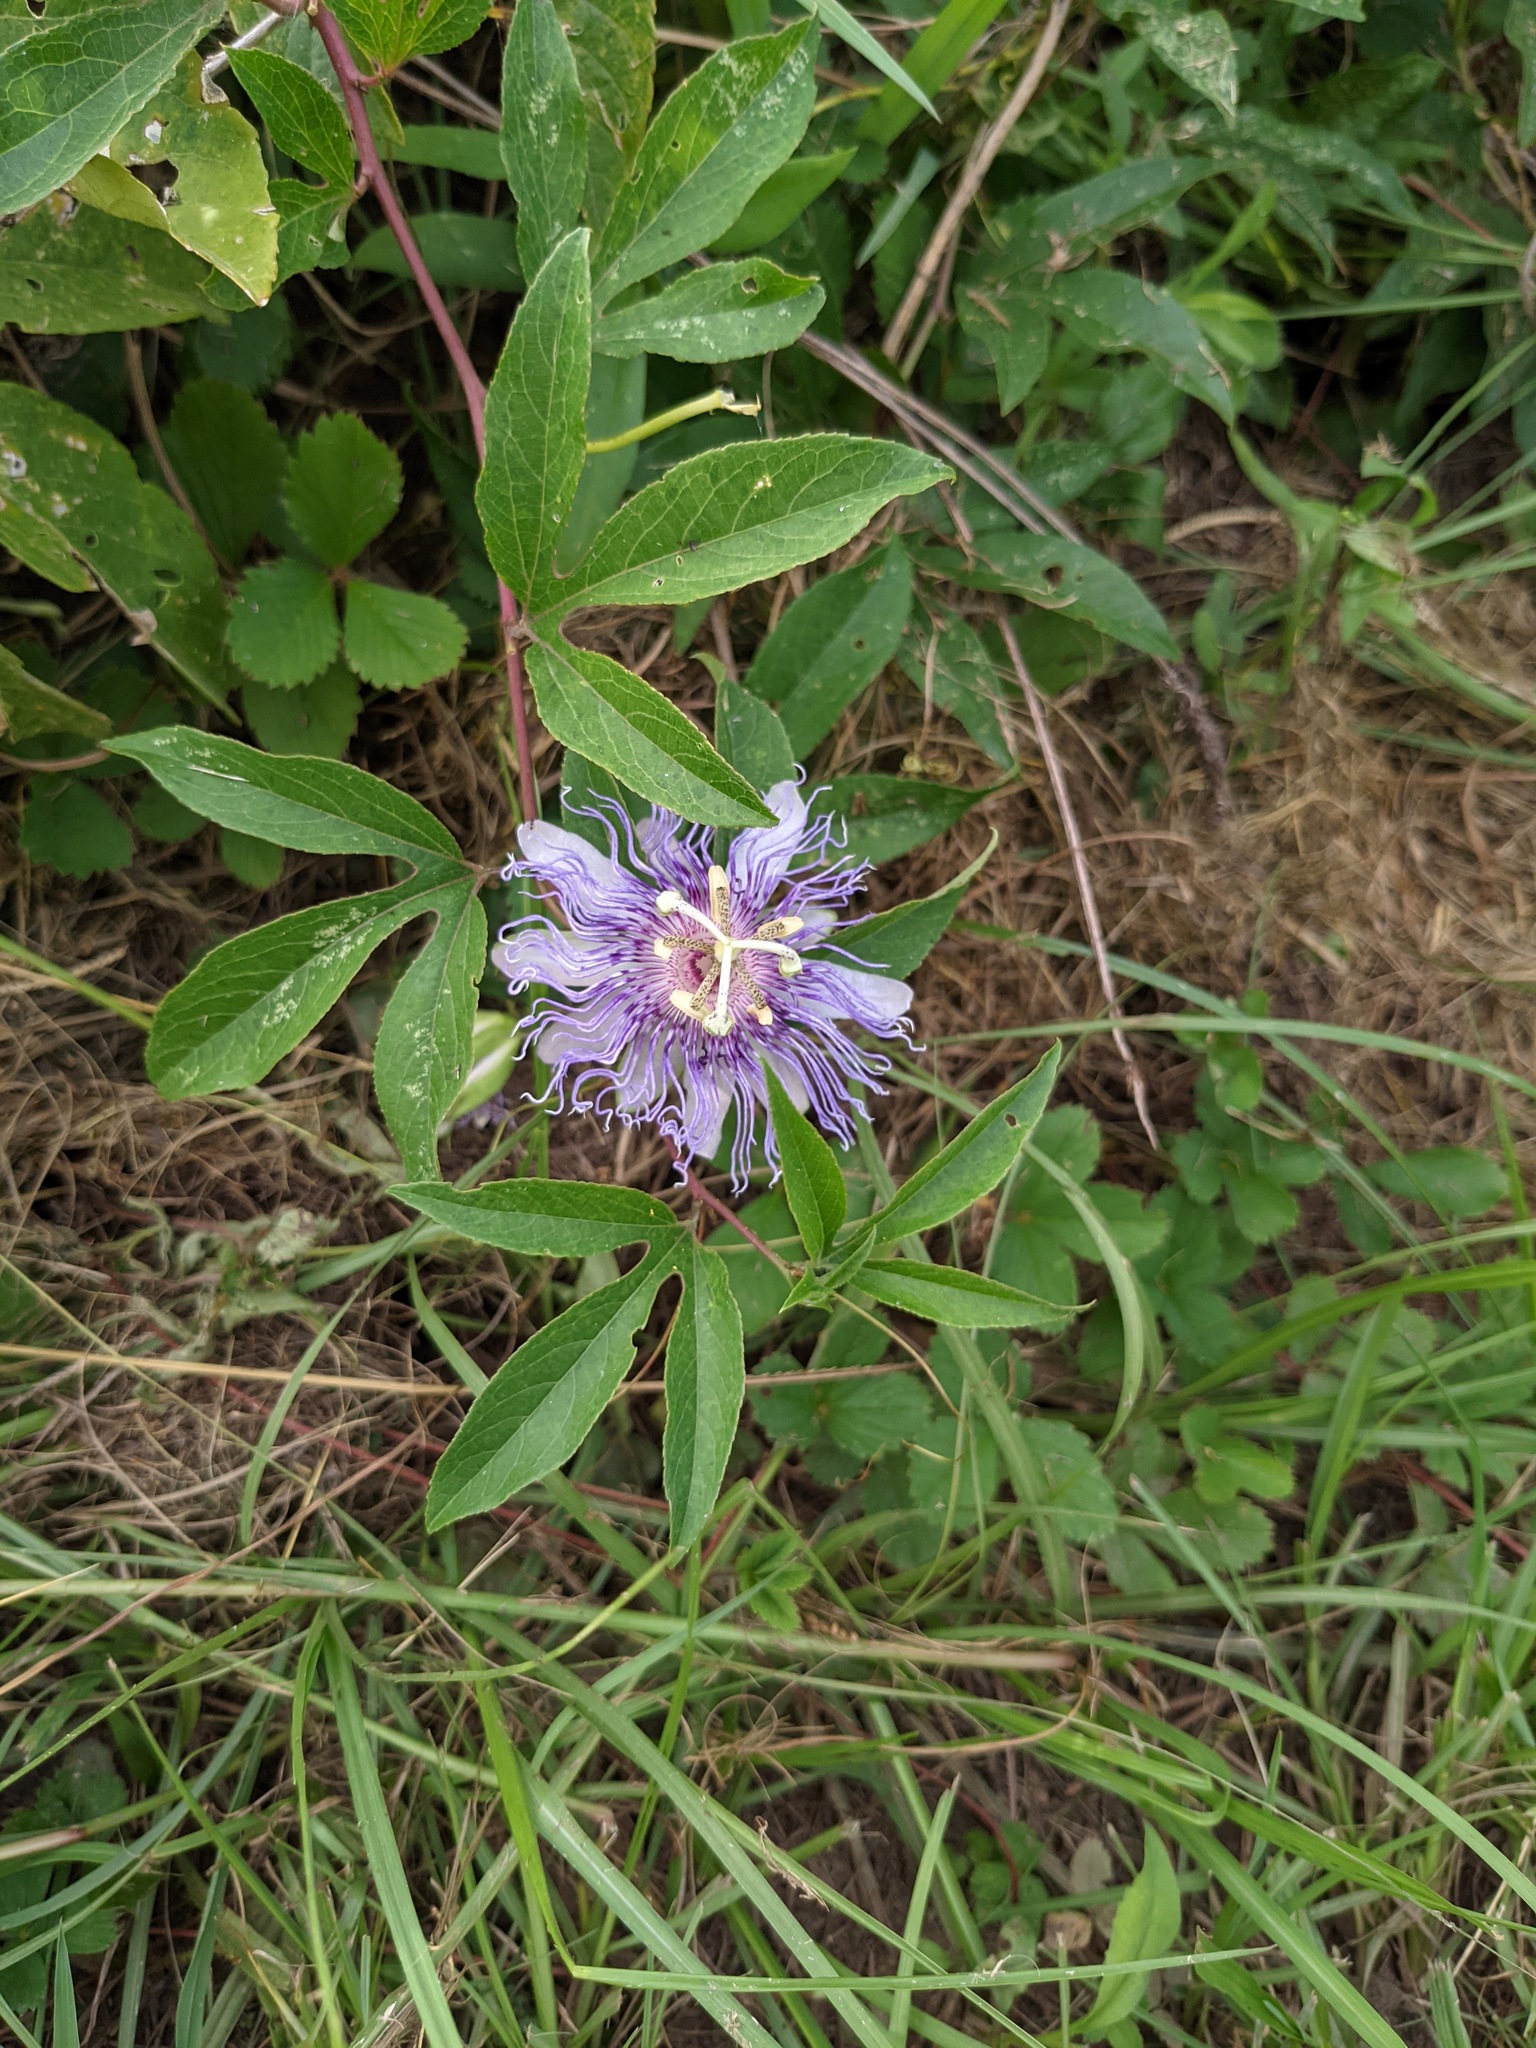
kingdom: Plantae
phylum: Tracheophyta
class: Magnoliopsida
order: Malpighiales
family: Passifloraceae
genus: Passiflora
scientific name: Passiflora incarnata
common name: Apricot-vine
